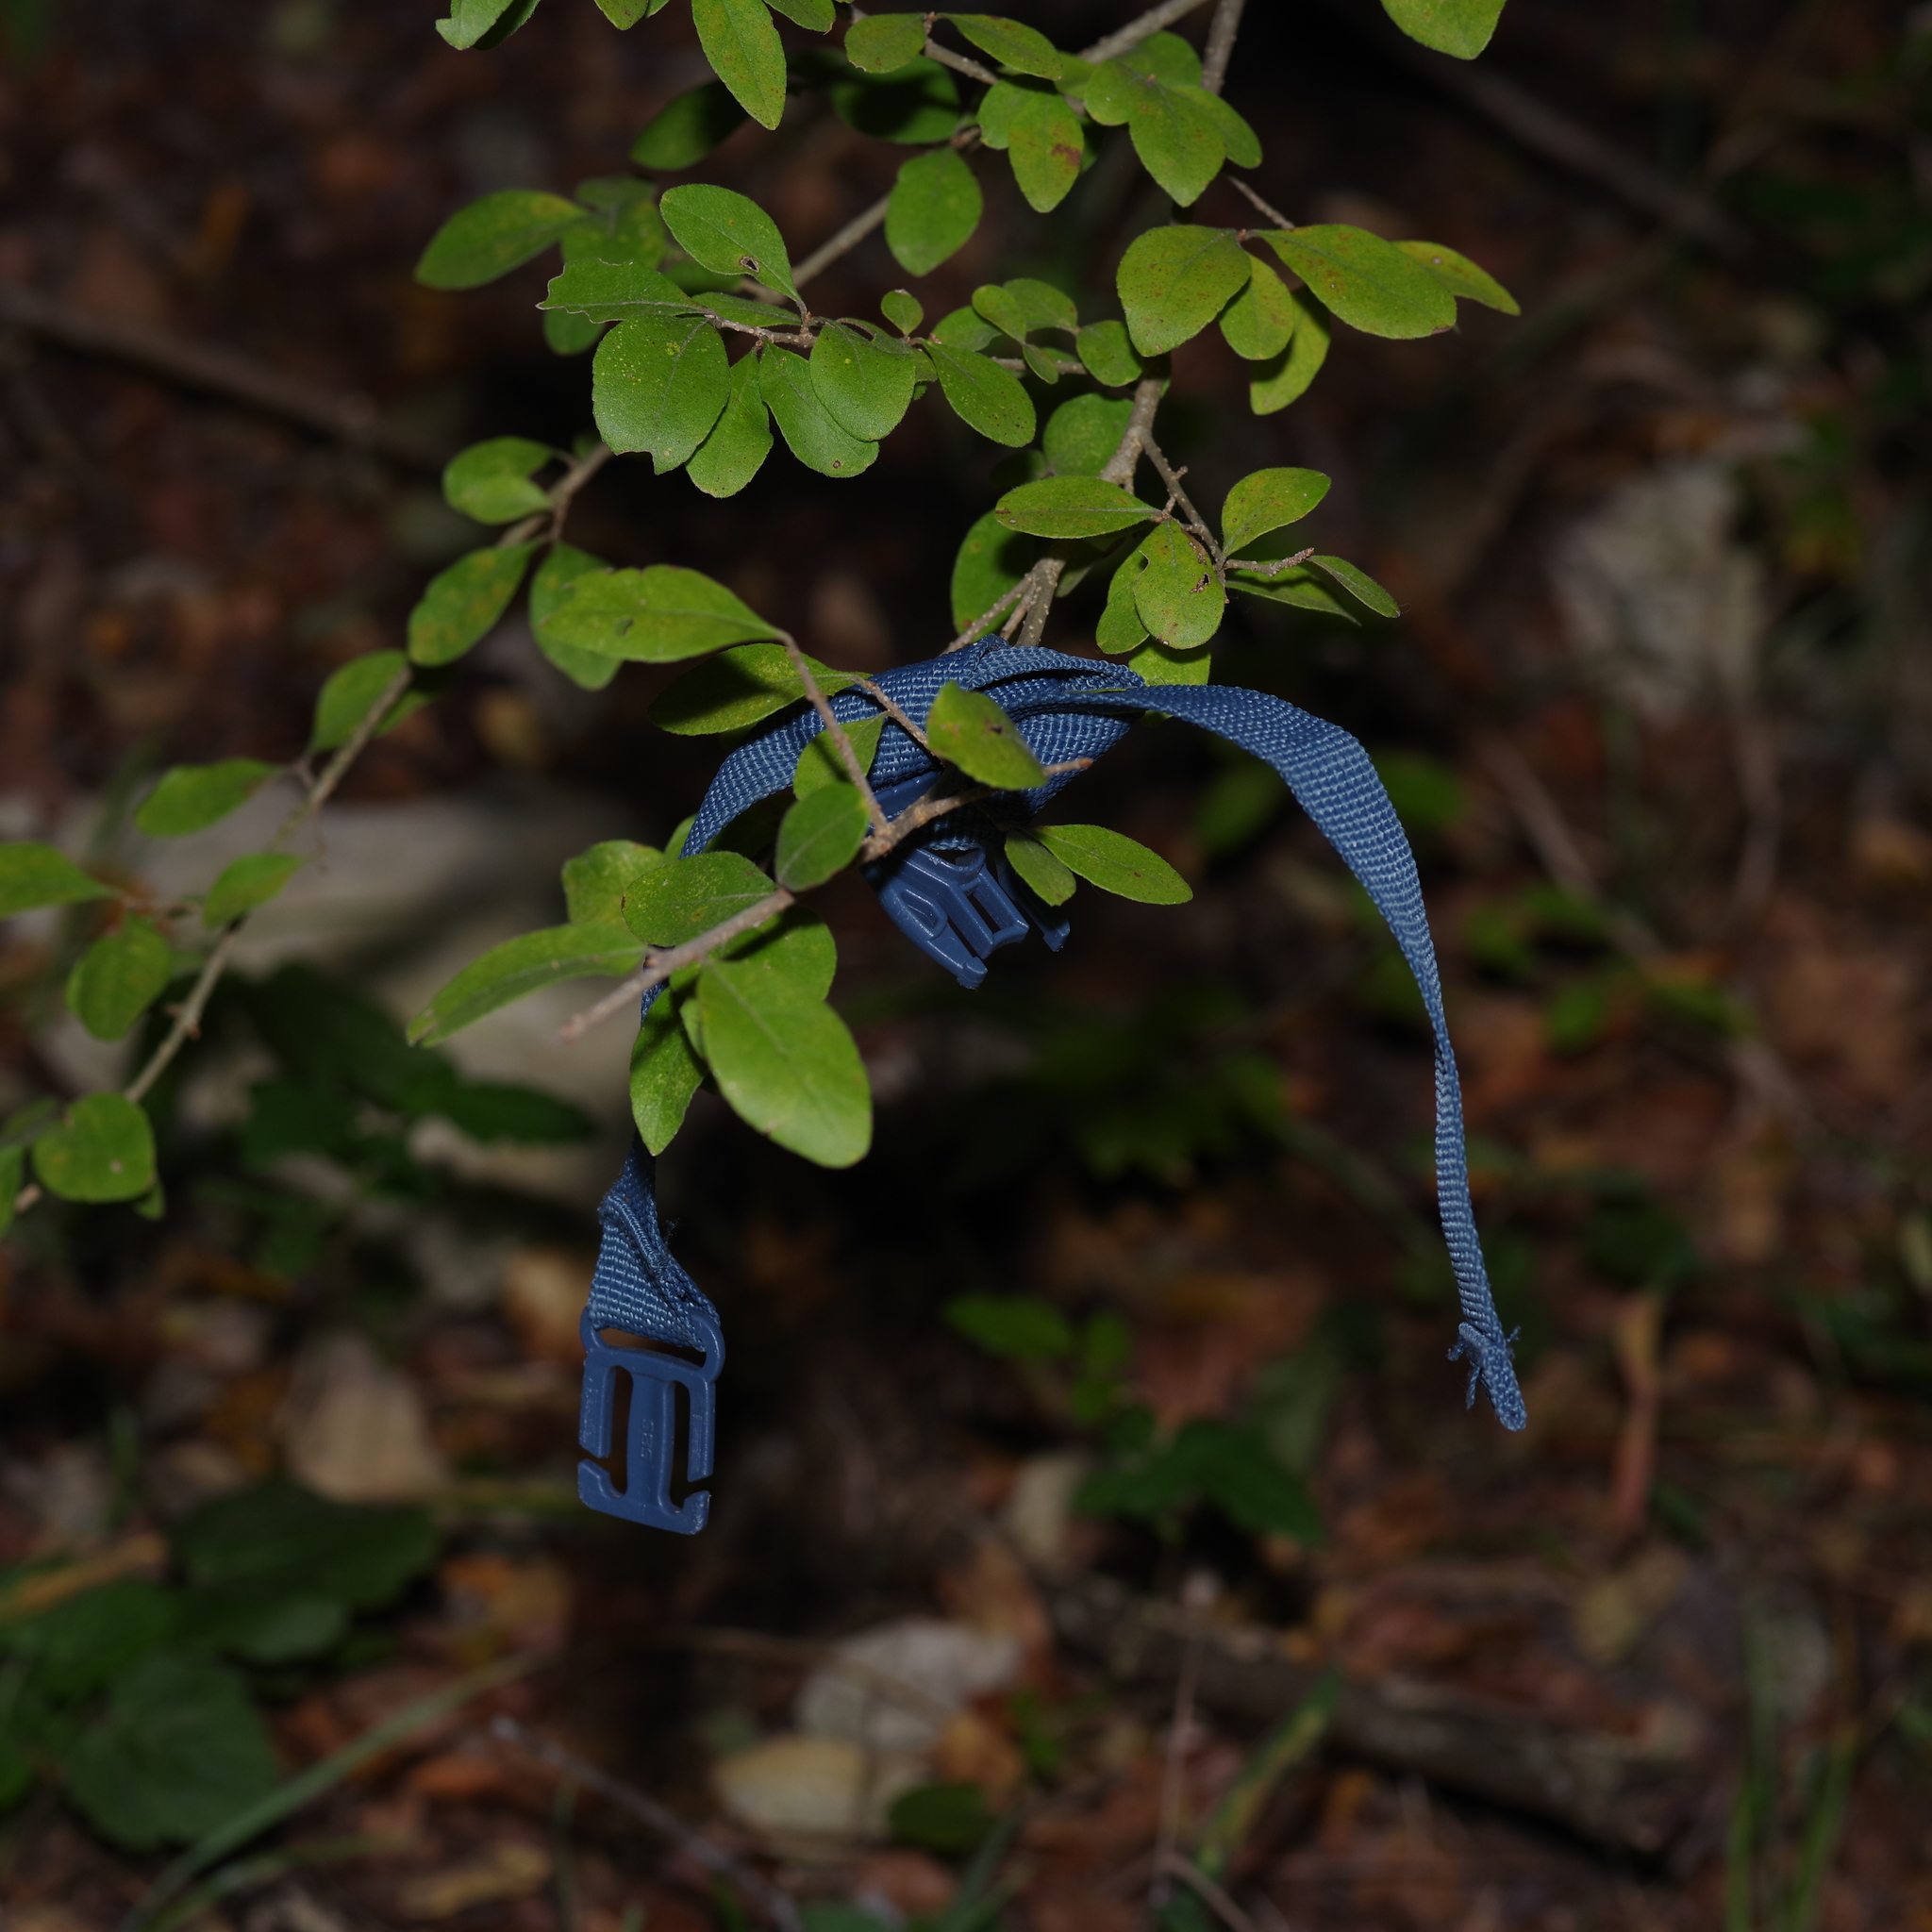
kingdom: Plantae
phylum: Tracheophyta
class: Magnoliopsida
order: Piperales
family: Aristolochiaceae
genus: Endodeca
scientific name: Endodeca serpentaria
